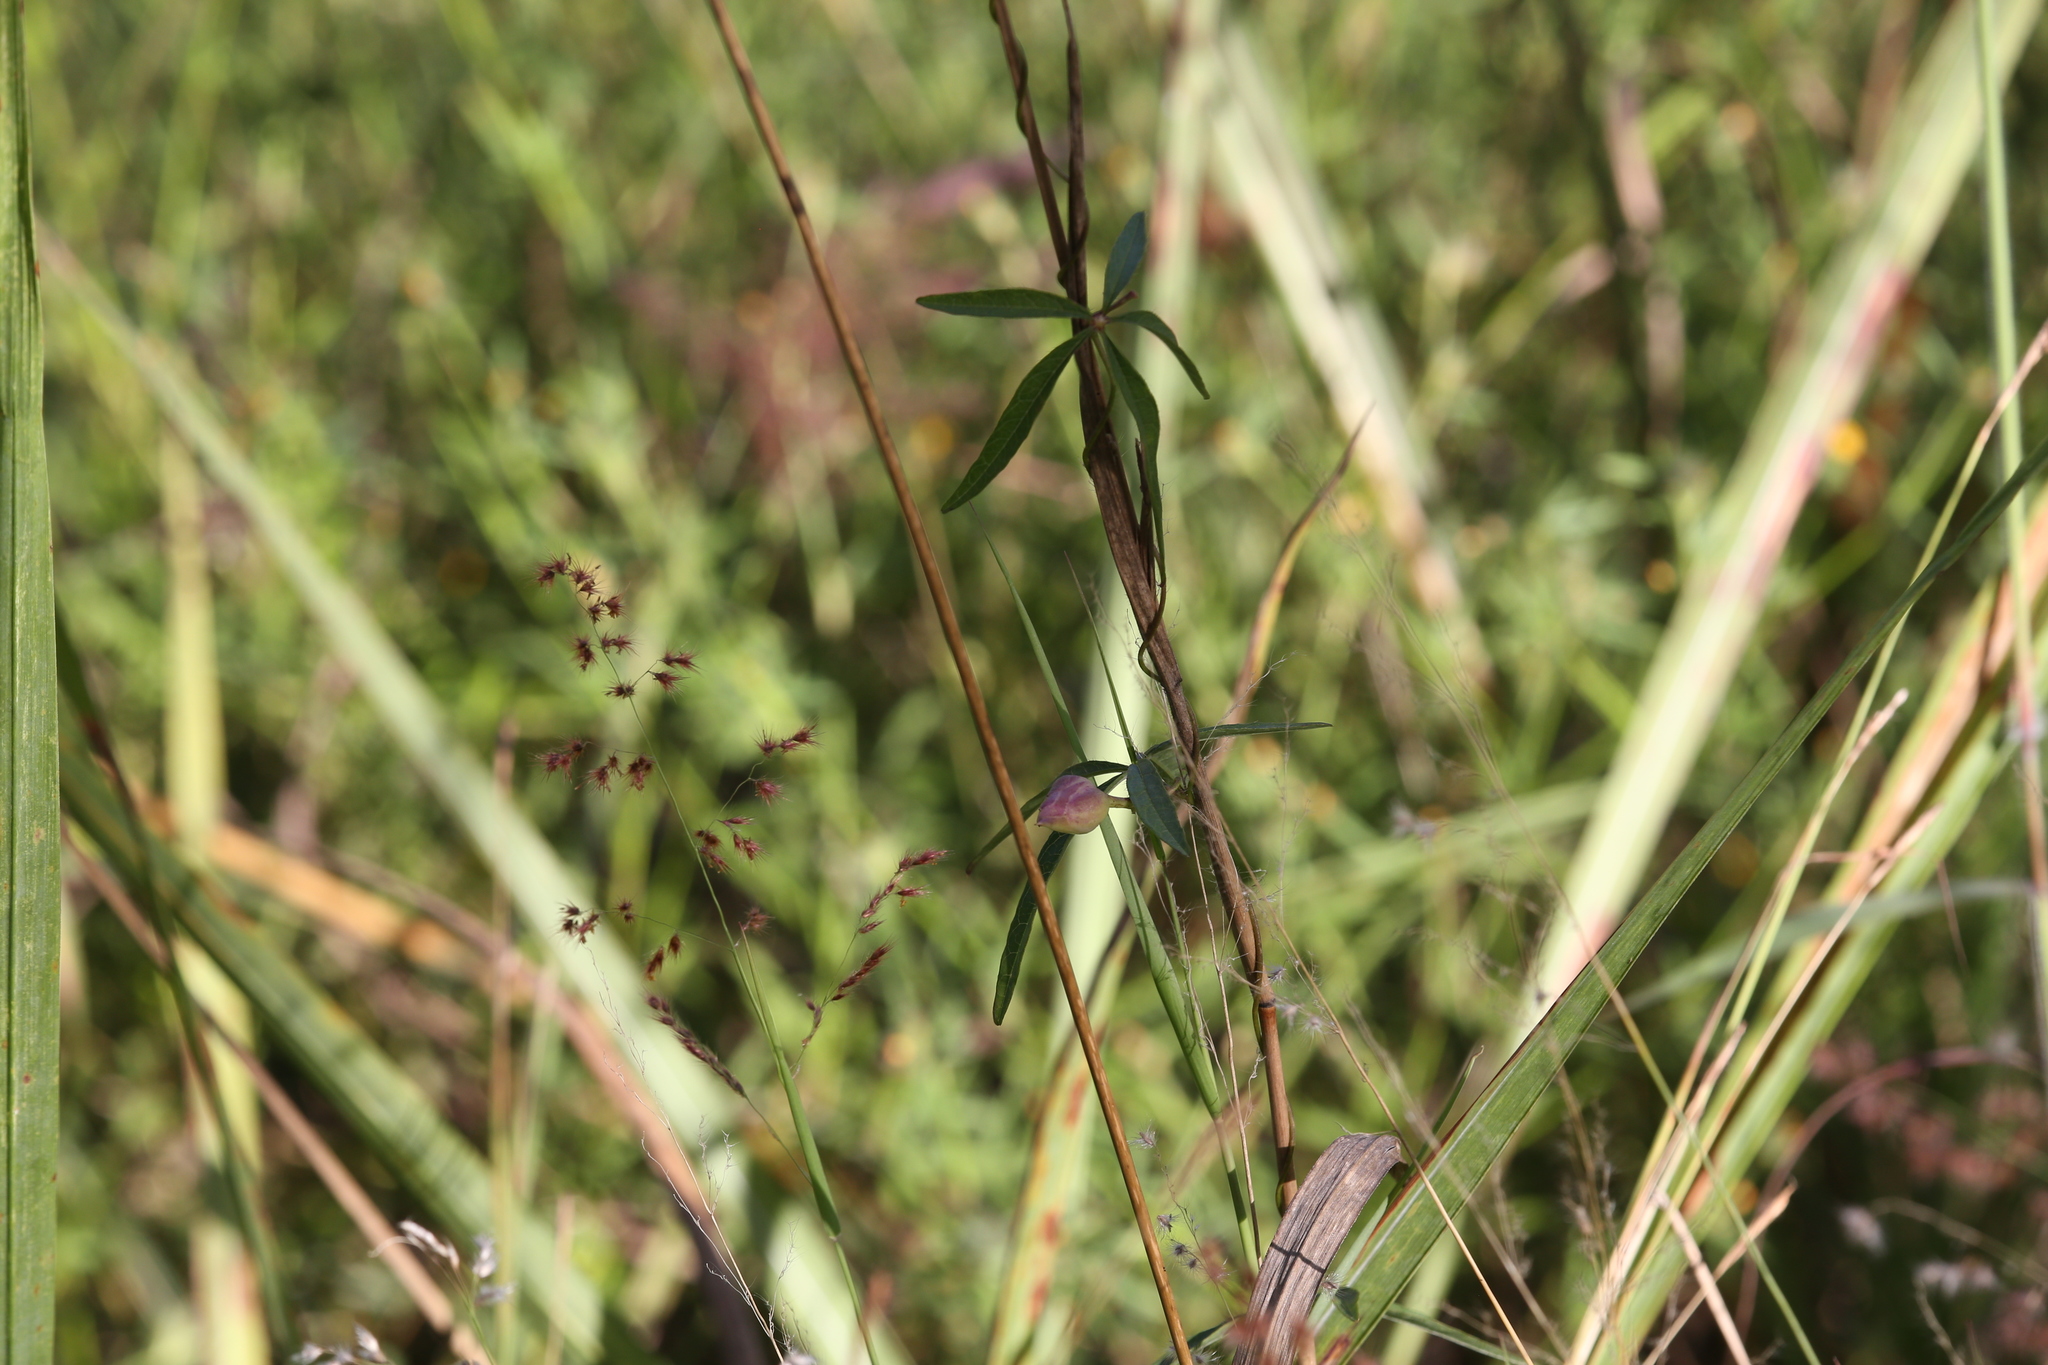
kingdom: Plantae
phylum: Tracheophyta
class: Magnoliopsida
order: Solanales
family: Convolvulaceae
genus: Distimake
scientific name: Distimake quinquefolius
